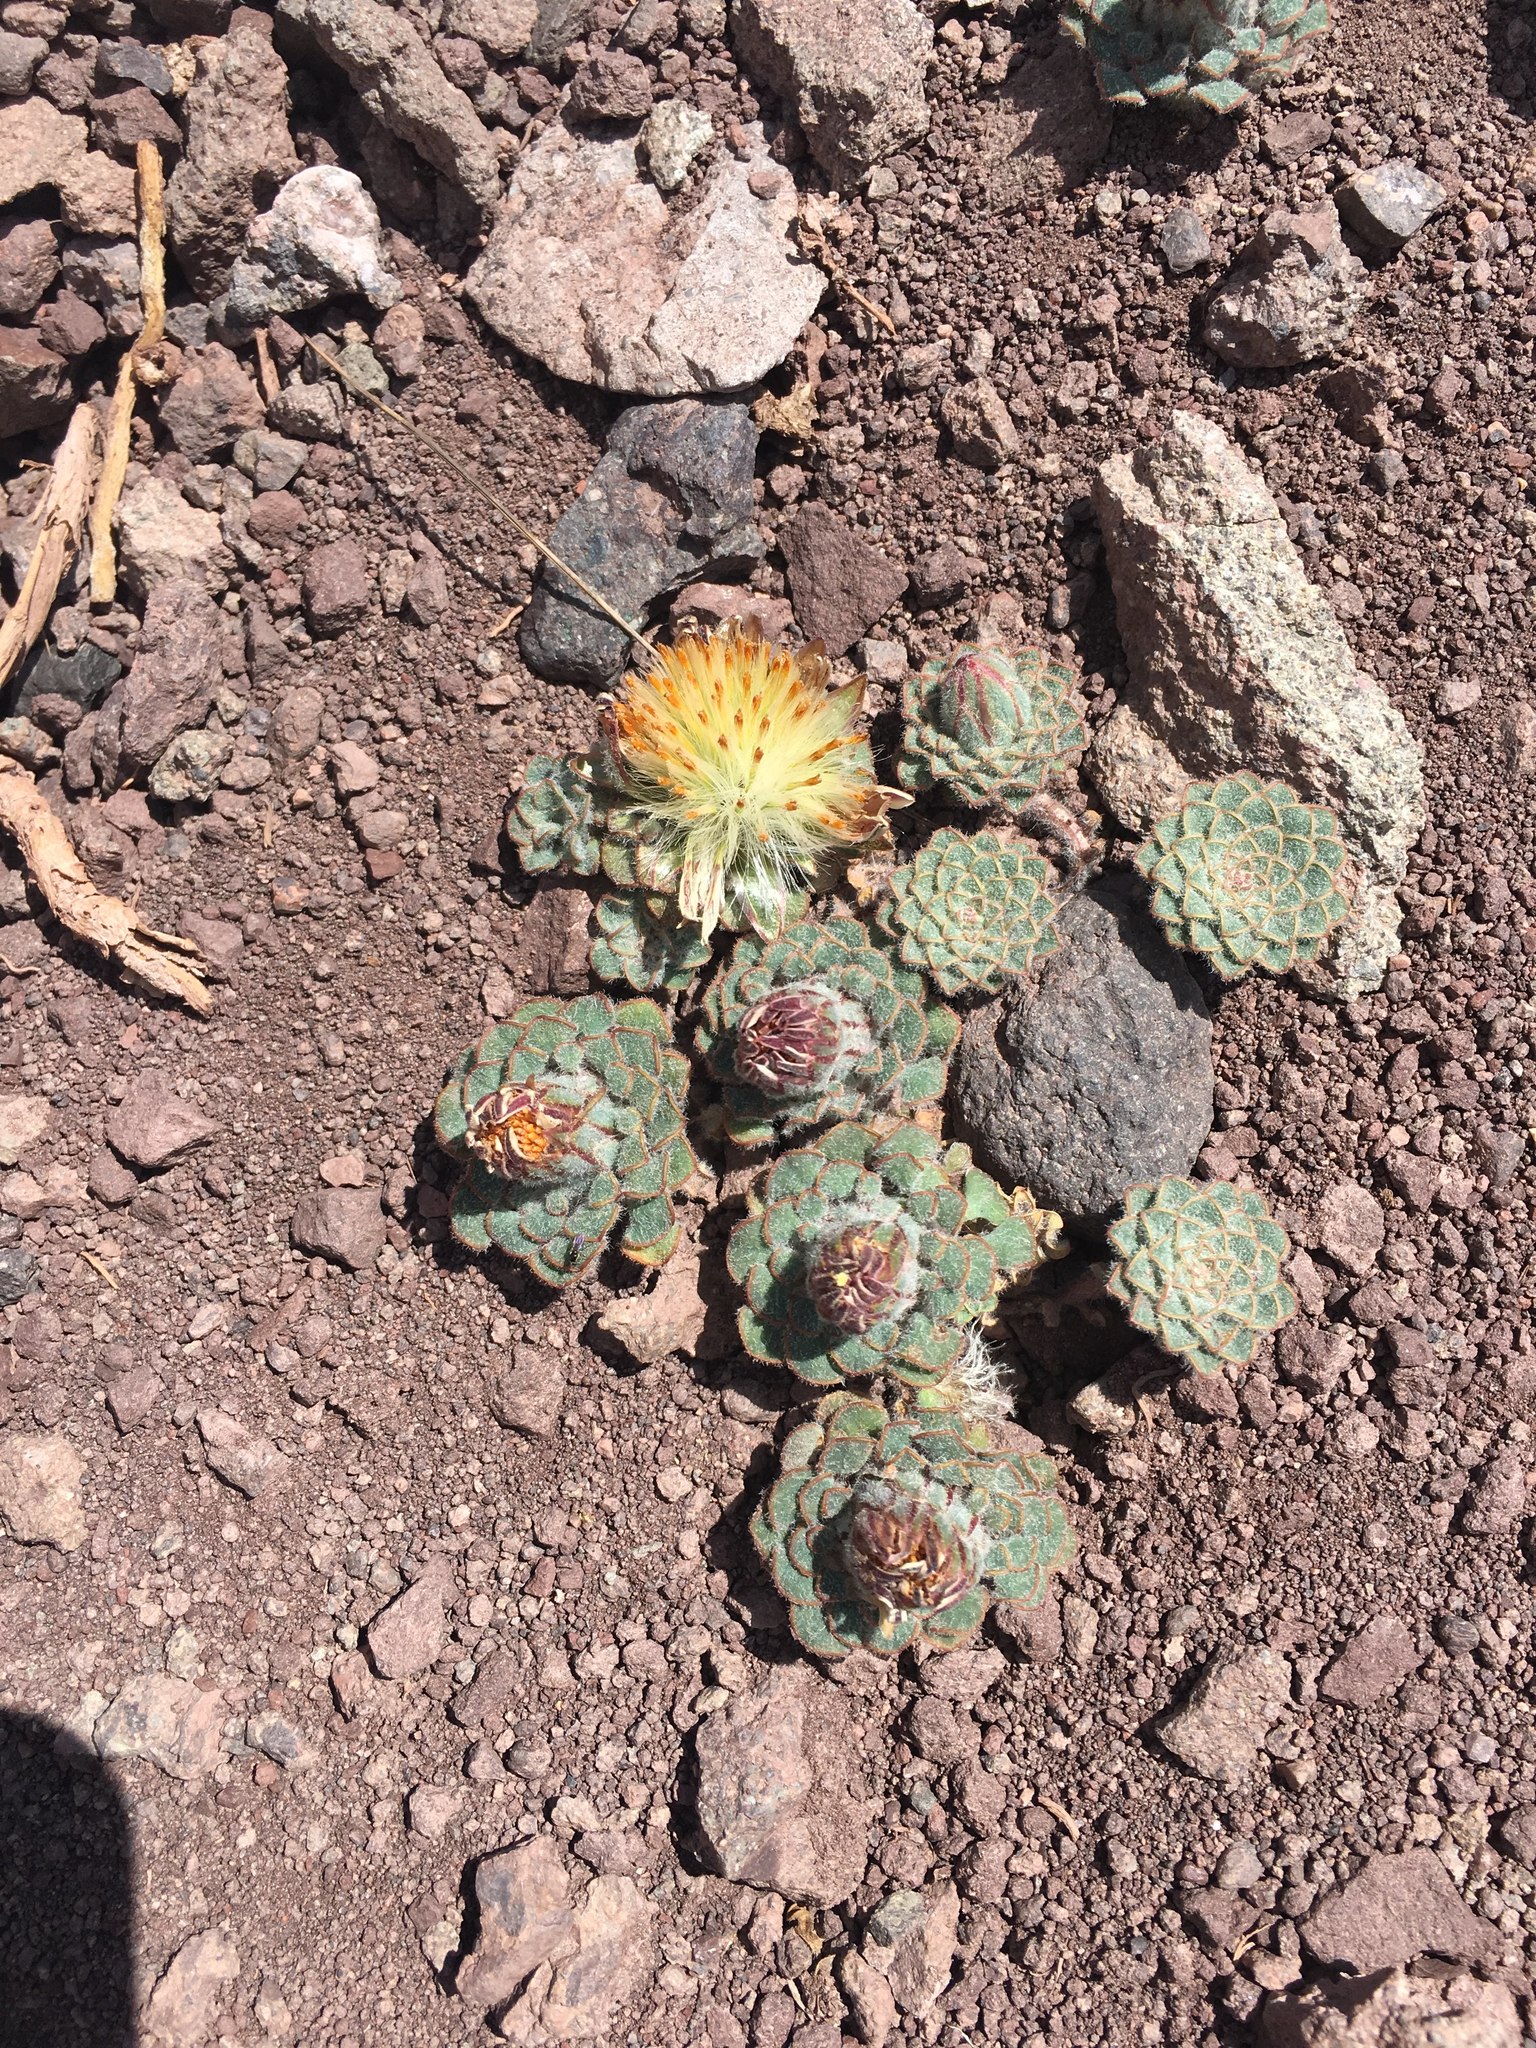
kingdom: Plantae
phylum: Tracheophyta
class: Magnoliopsida
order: Asterales
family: Asteraceae
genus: Chaetanthera
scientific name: Chaetanthera lanata
